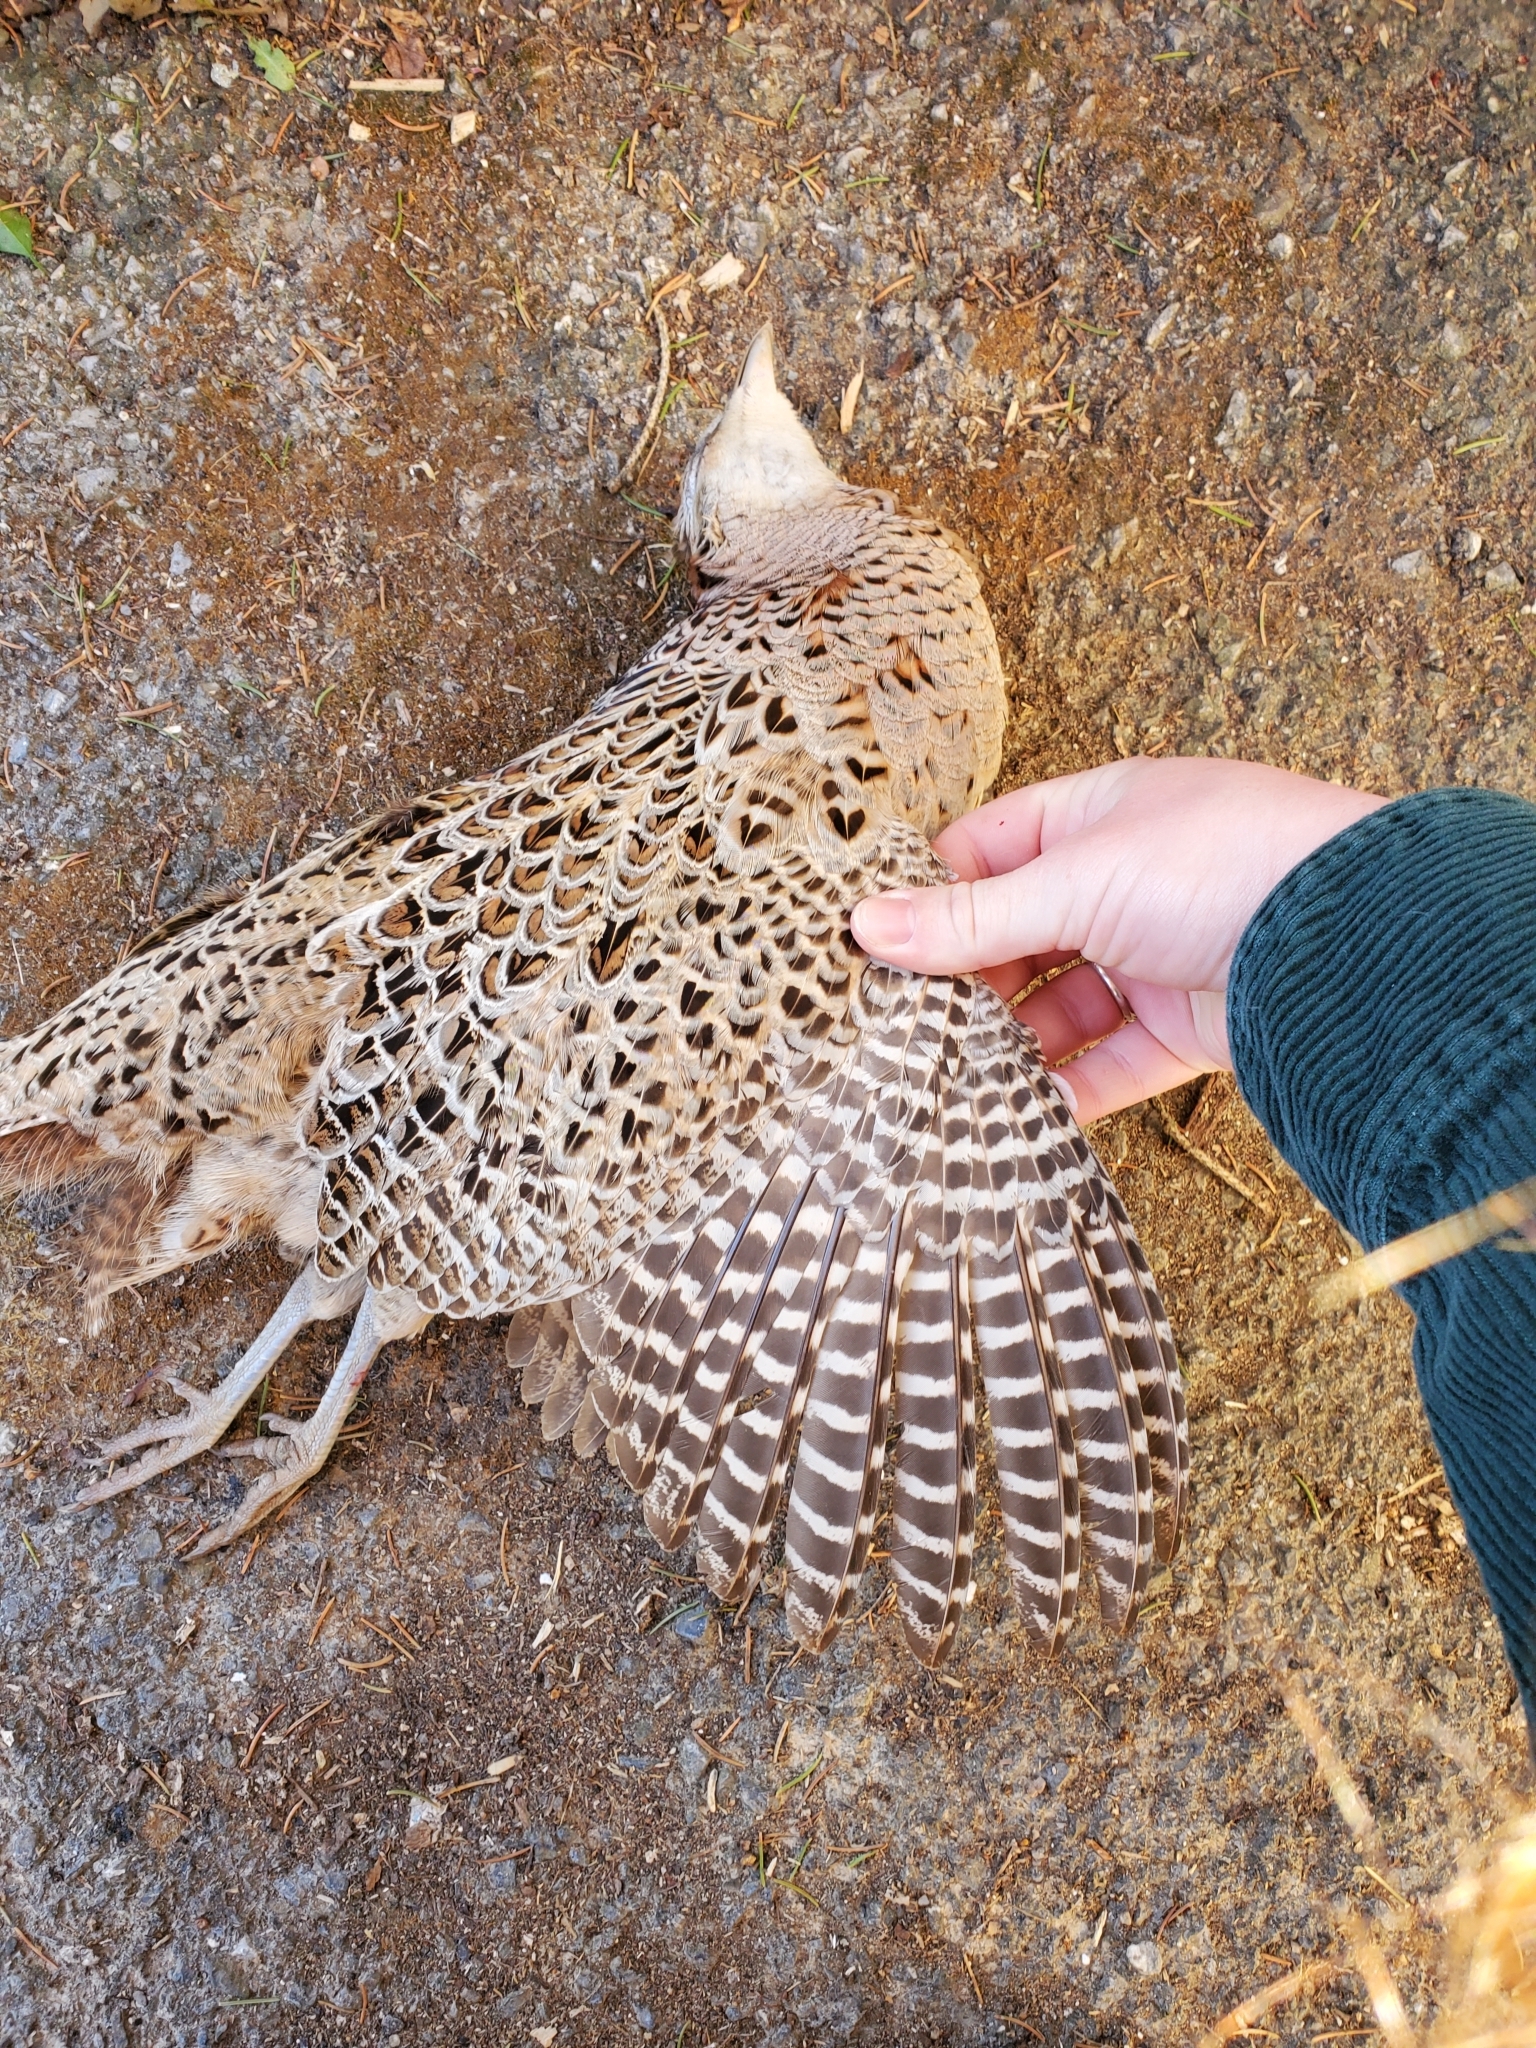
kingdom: Animalia
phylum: Chordata
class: Aves
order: Galliformes
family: Phasianidae
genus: Phasianus
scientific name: Phasianus colchicus
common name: Common pheasant
